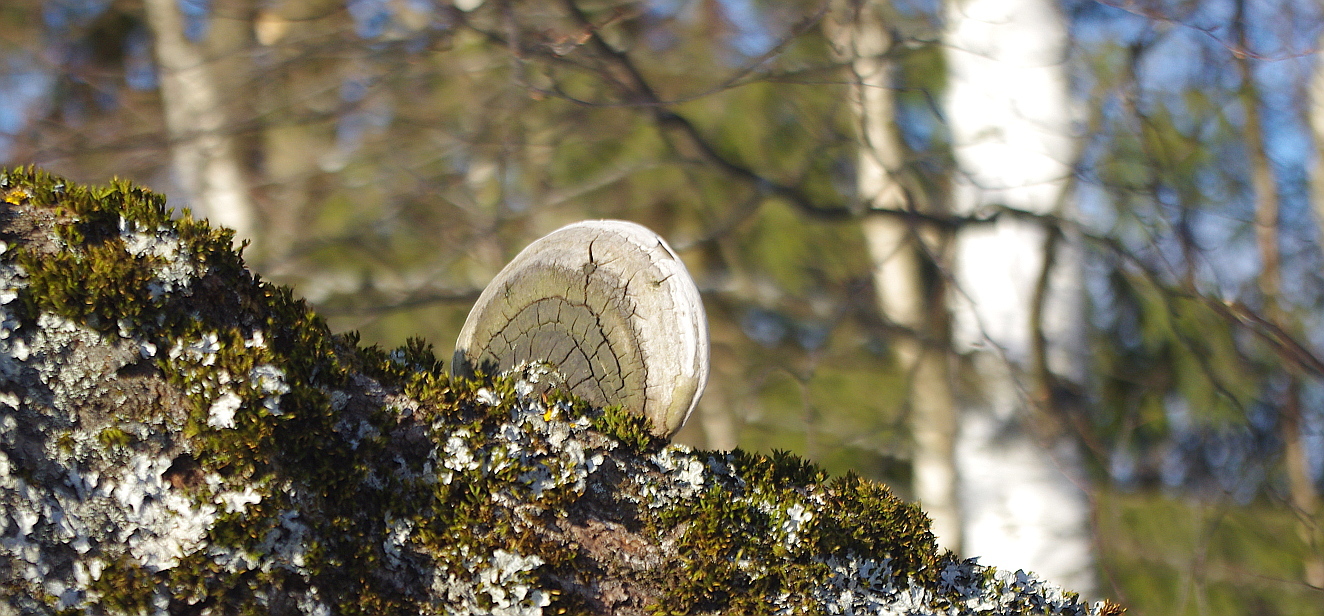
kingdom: Fungi
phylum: Basidiomycota
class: Agaricomycetes
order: Hymenochaetales
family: Hymenochaetaceae
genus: Phellinus
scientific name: Phellinus
